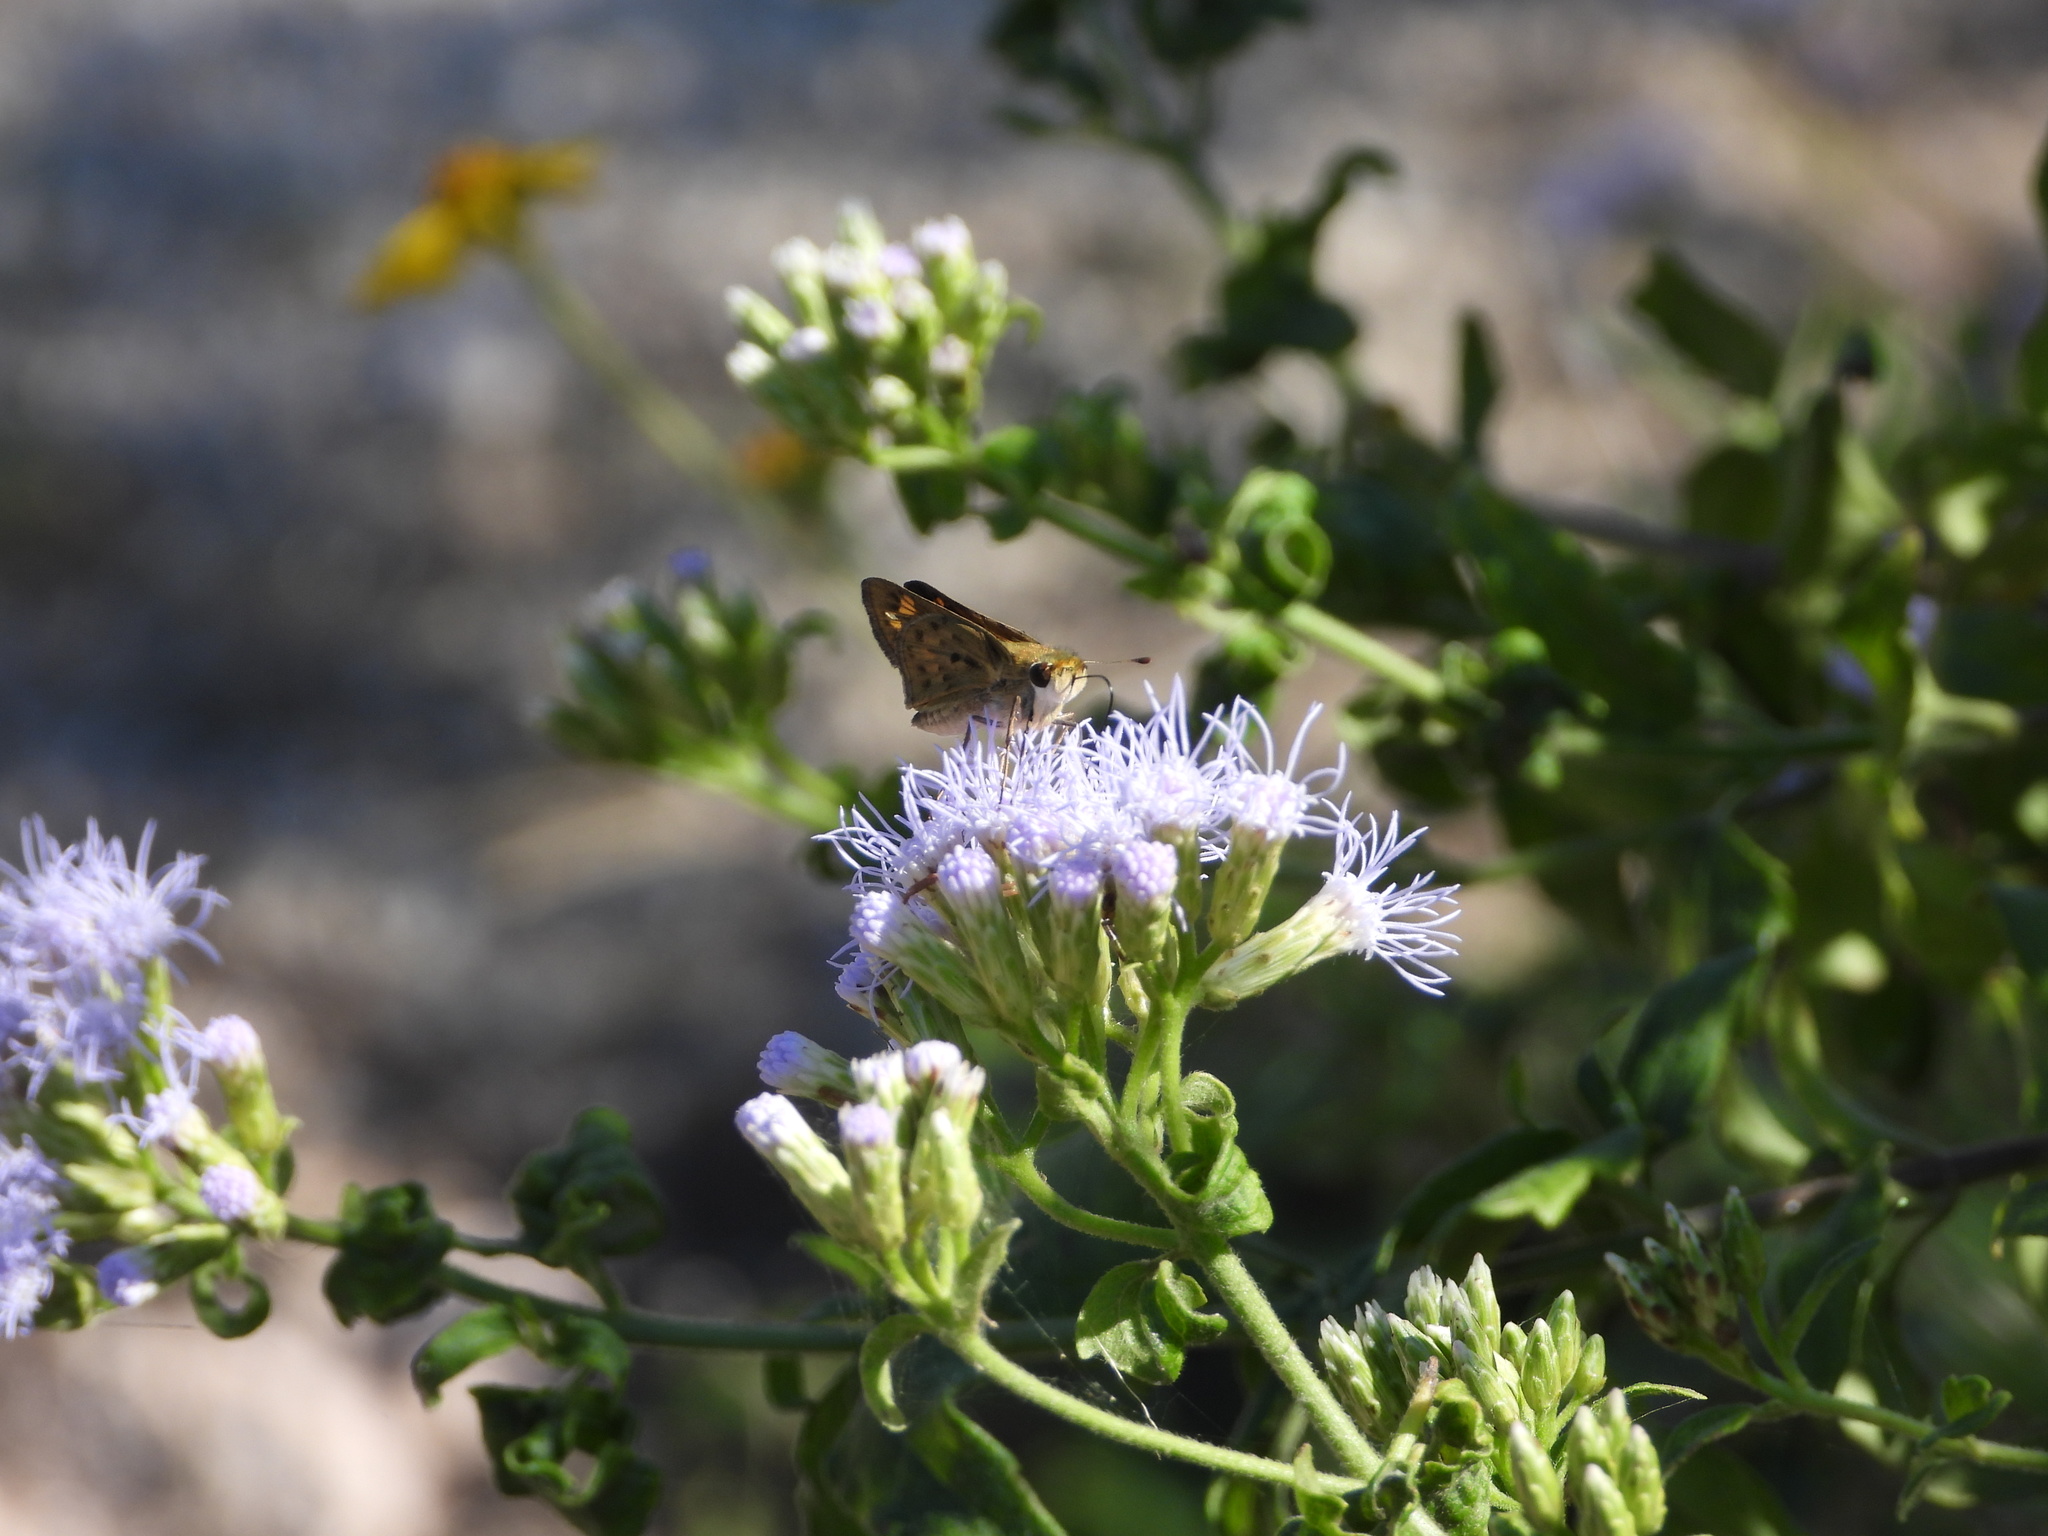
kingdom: Animalia
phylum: Arthropoda
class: Insecta
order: Lepidoptera
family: Hesperiidae
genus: Hylephila
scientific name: Hylephila phyleus
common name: Fiery skipper
